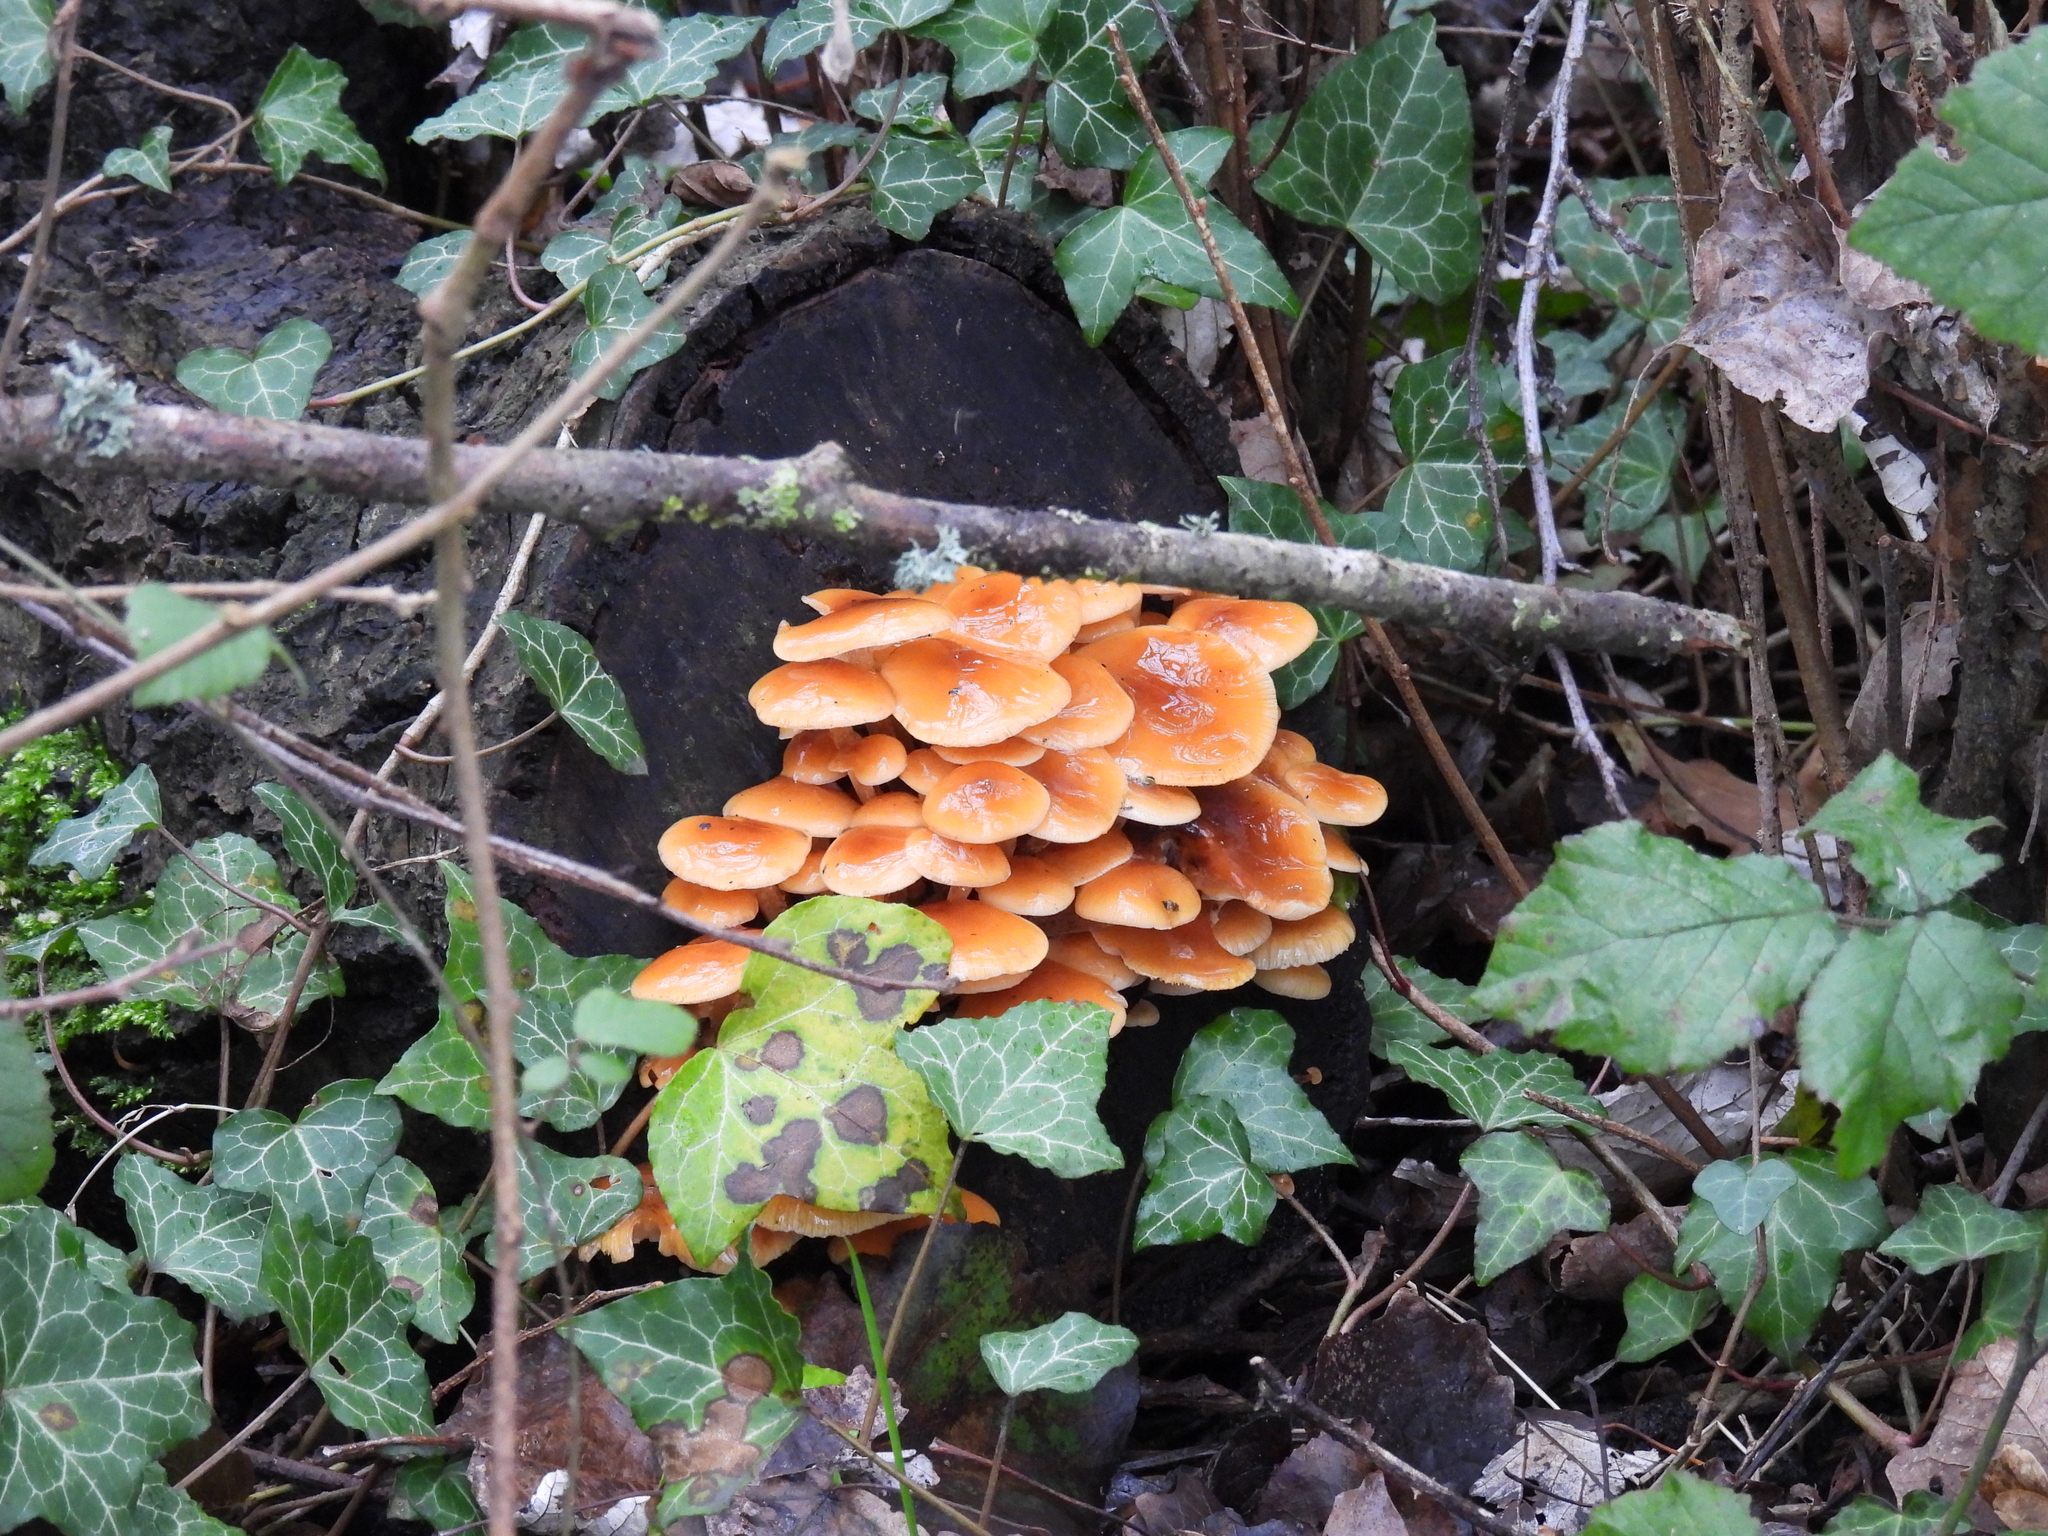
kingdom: Fungi
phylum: Basidiomycota
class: Agaricomycetes
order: Agaricales
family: Physalacriaceae
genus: Flammulina
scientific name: Flammulina
